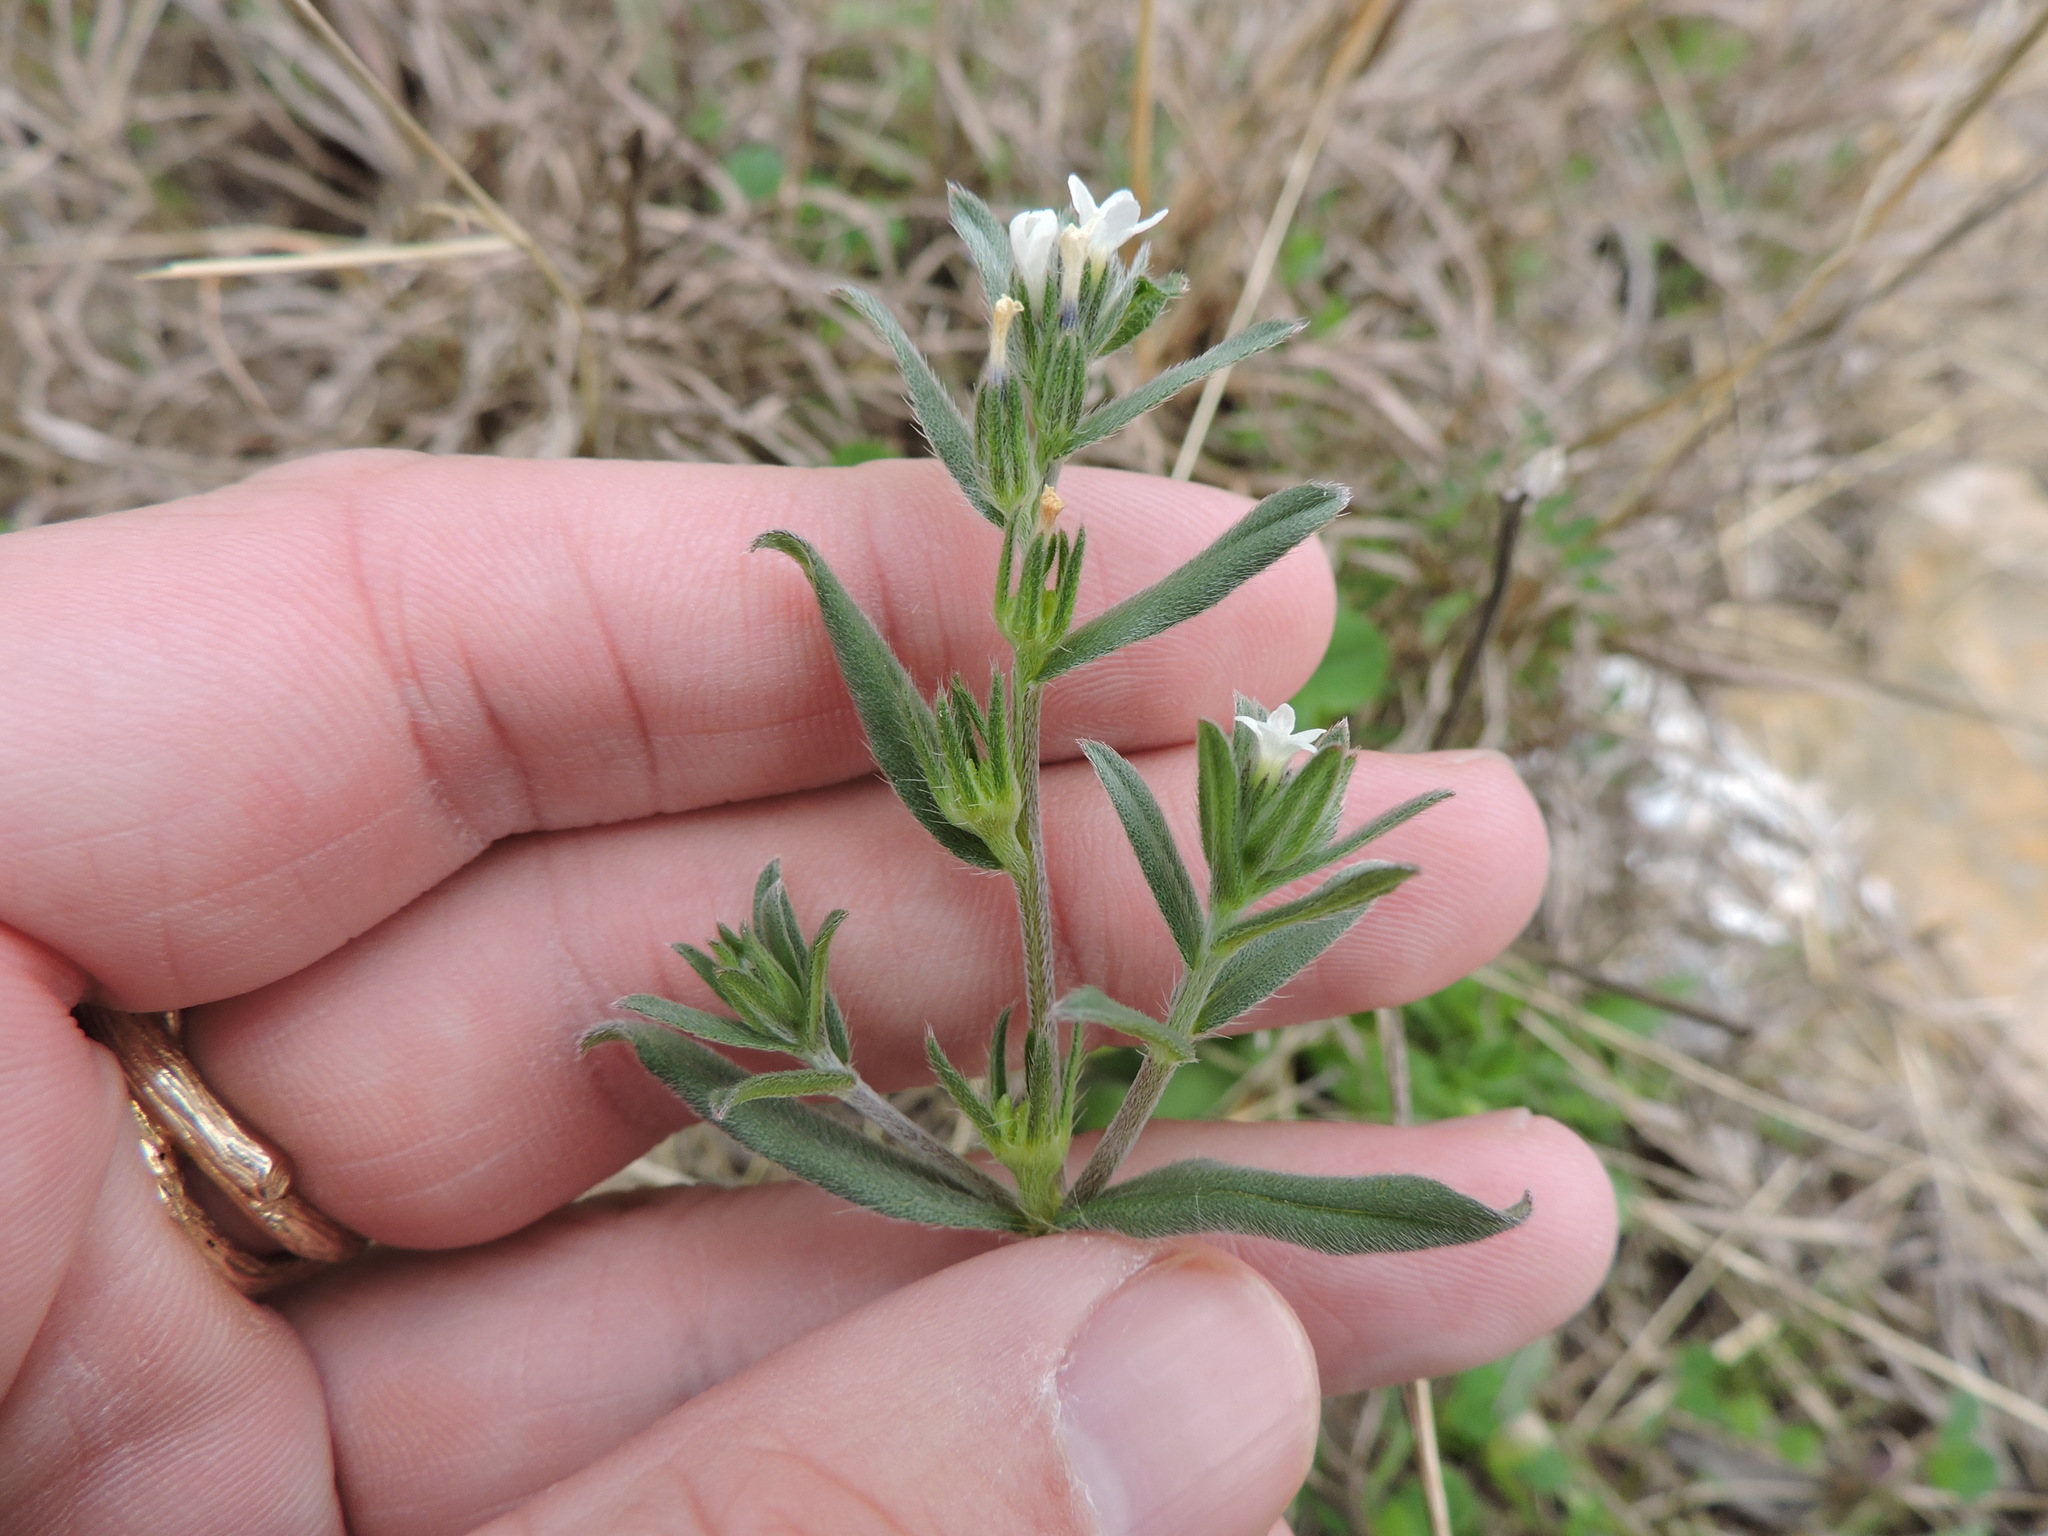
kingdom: Plantae
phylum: Tracheophyta
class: Magnoliopsida
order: Boraginales
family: Boraginaceae
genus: Buglossoides
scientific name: Buglossoides arvensis
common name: Corn gromwell
